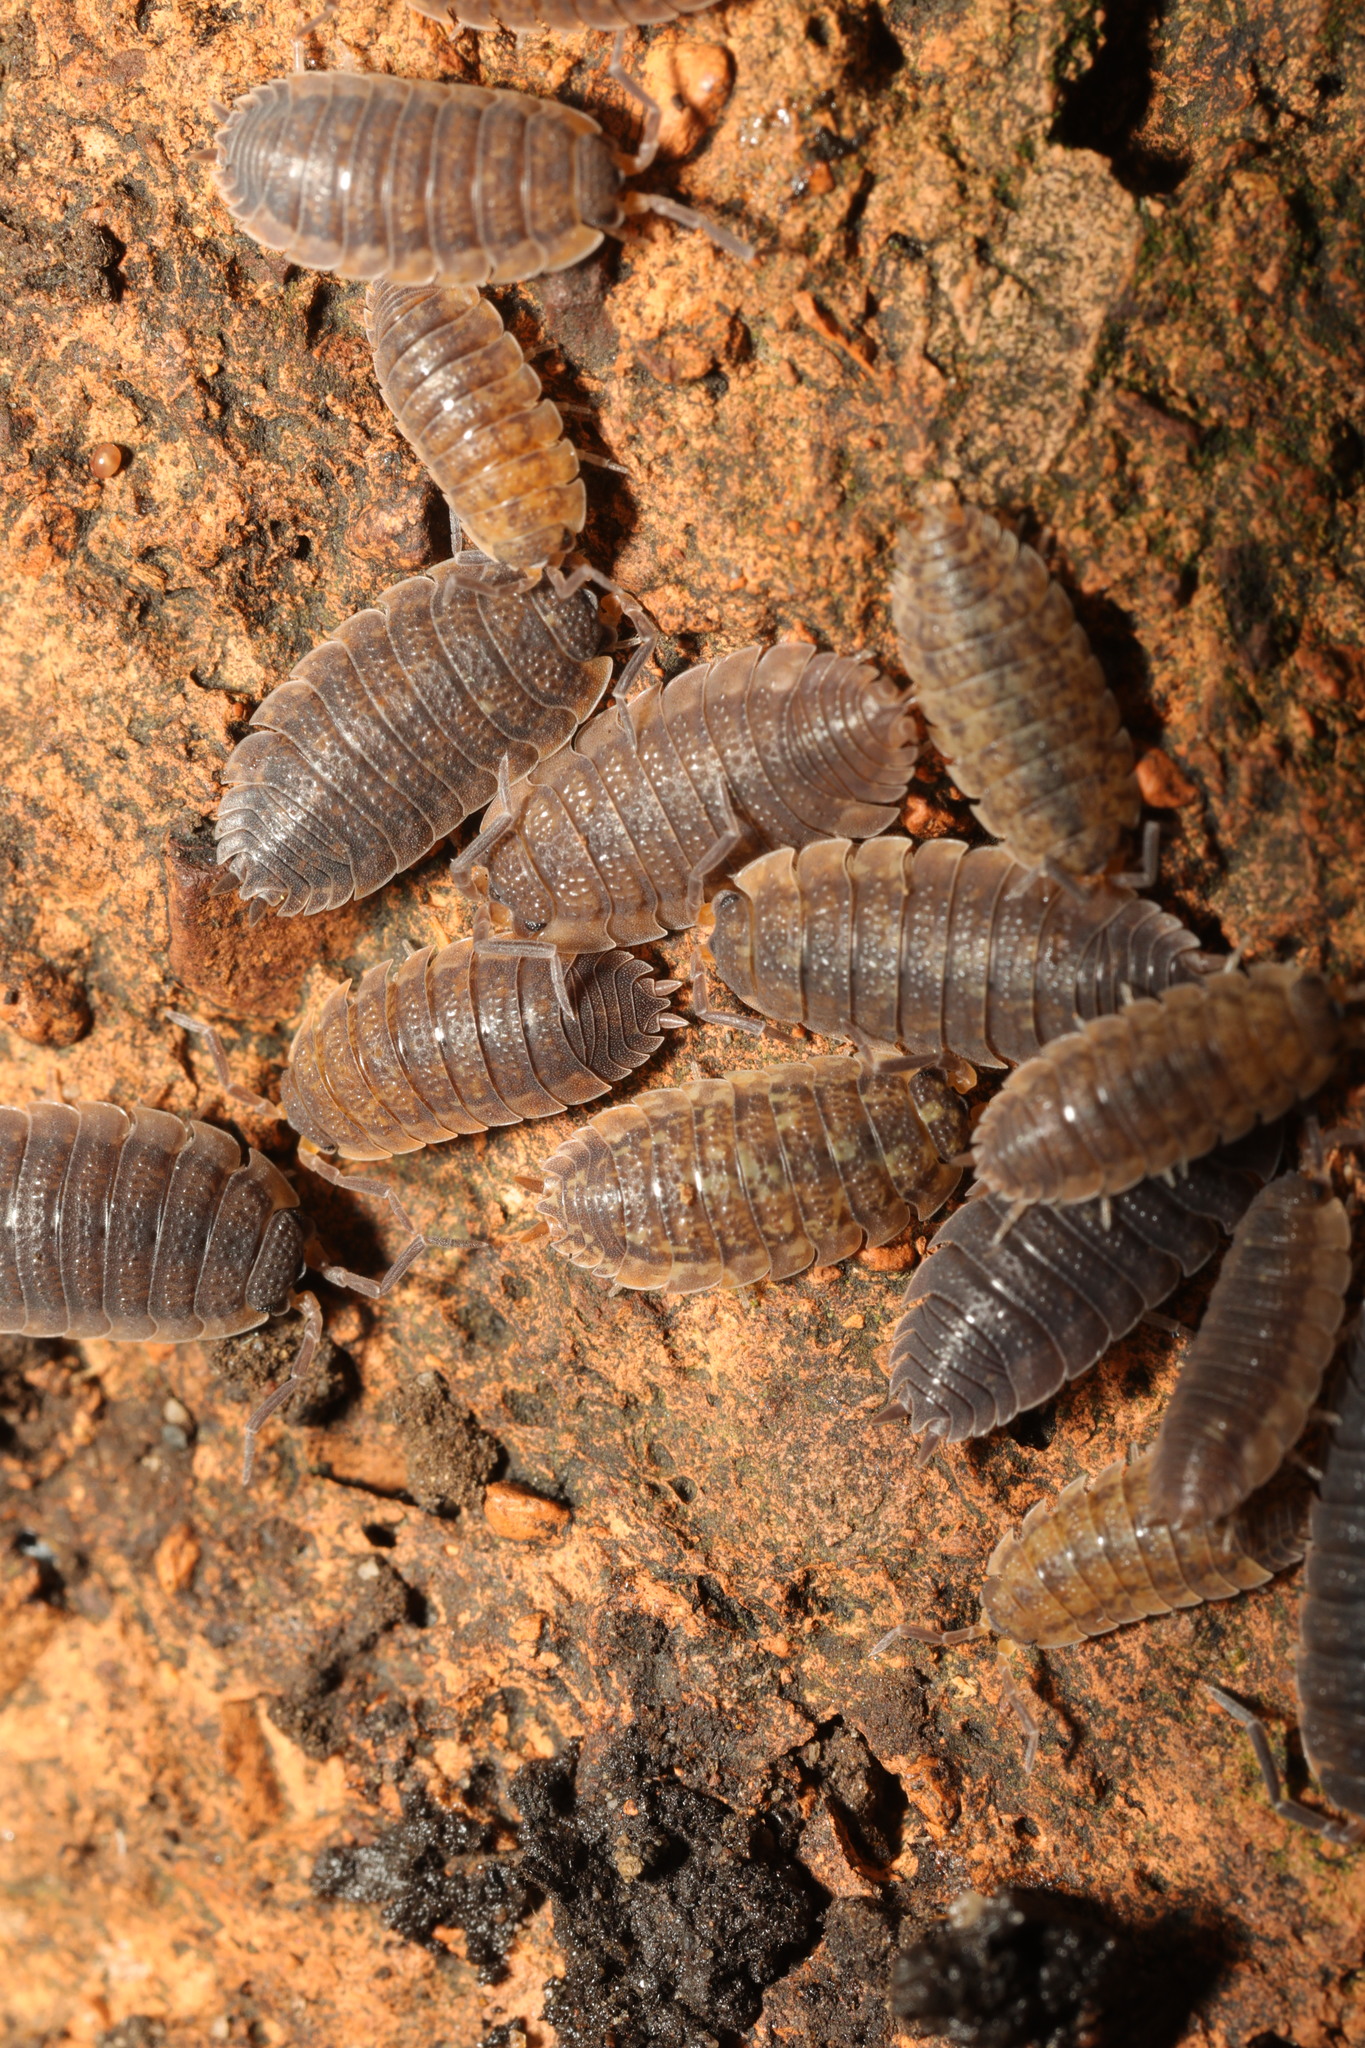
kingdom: Animalia
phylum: Arthropoda
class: Malacostraca
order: Isopoda
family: Porcellionidae
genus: Porcellio
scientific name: Porcellio scaber
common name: Common rough woodlouse
